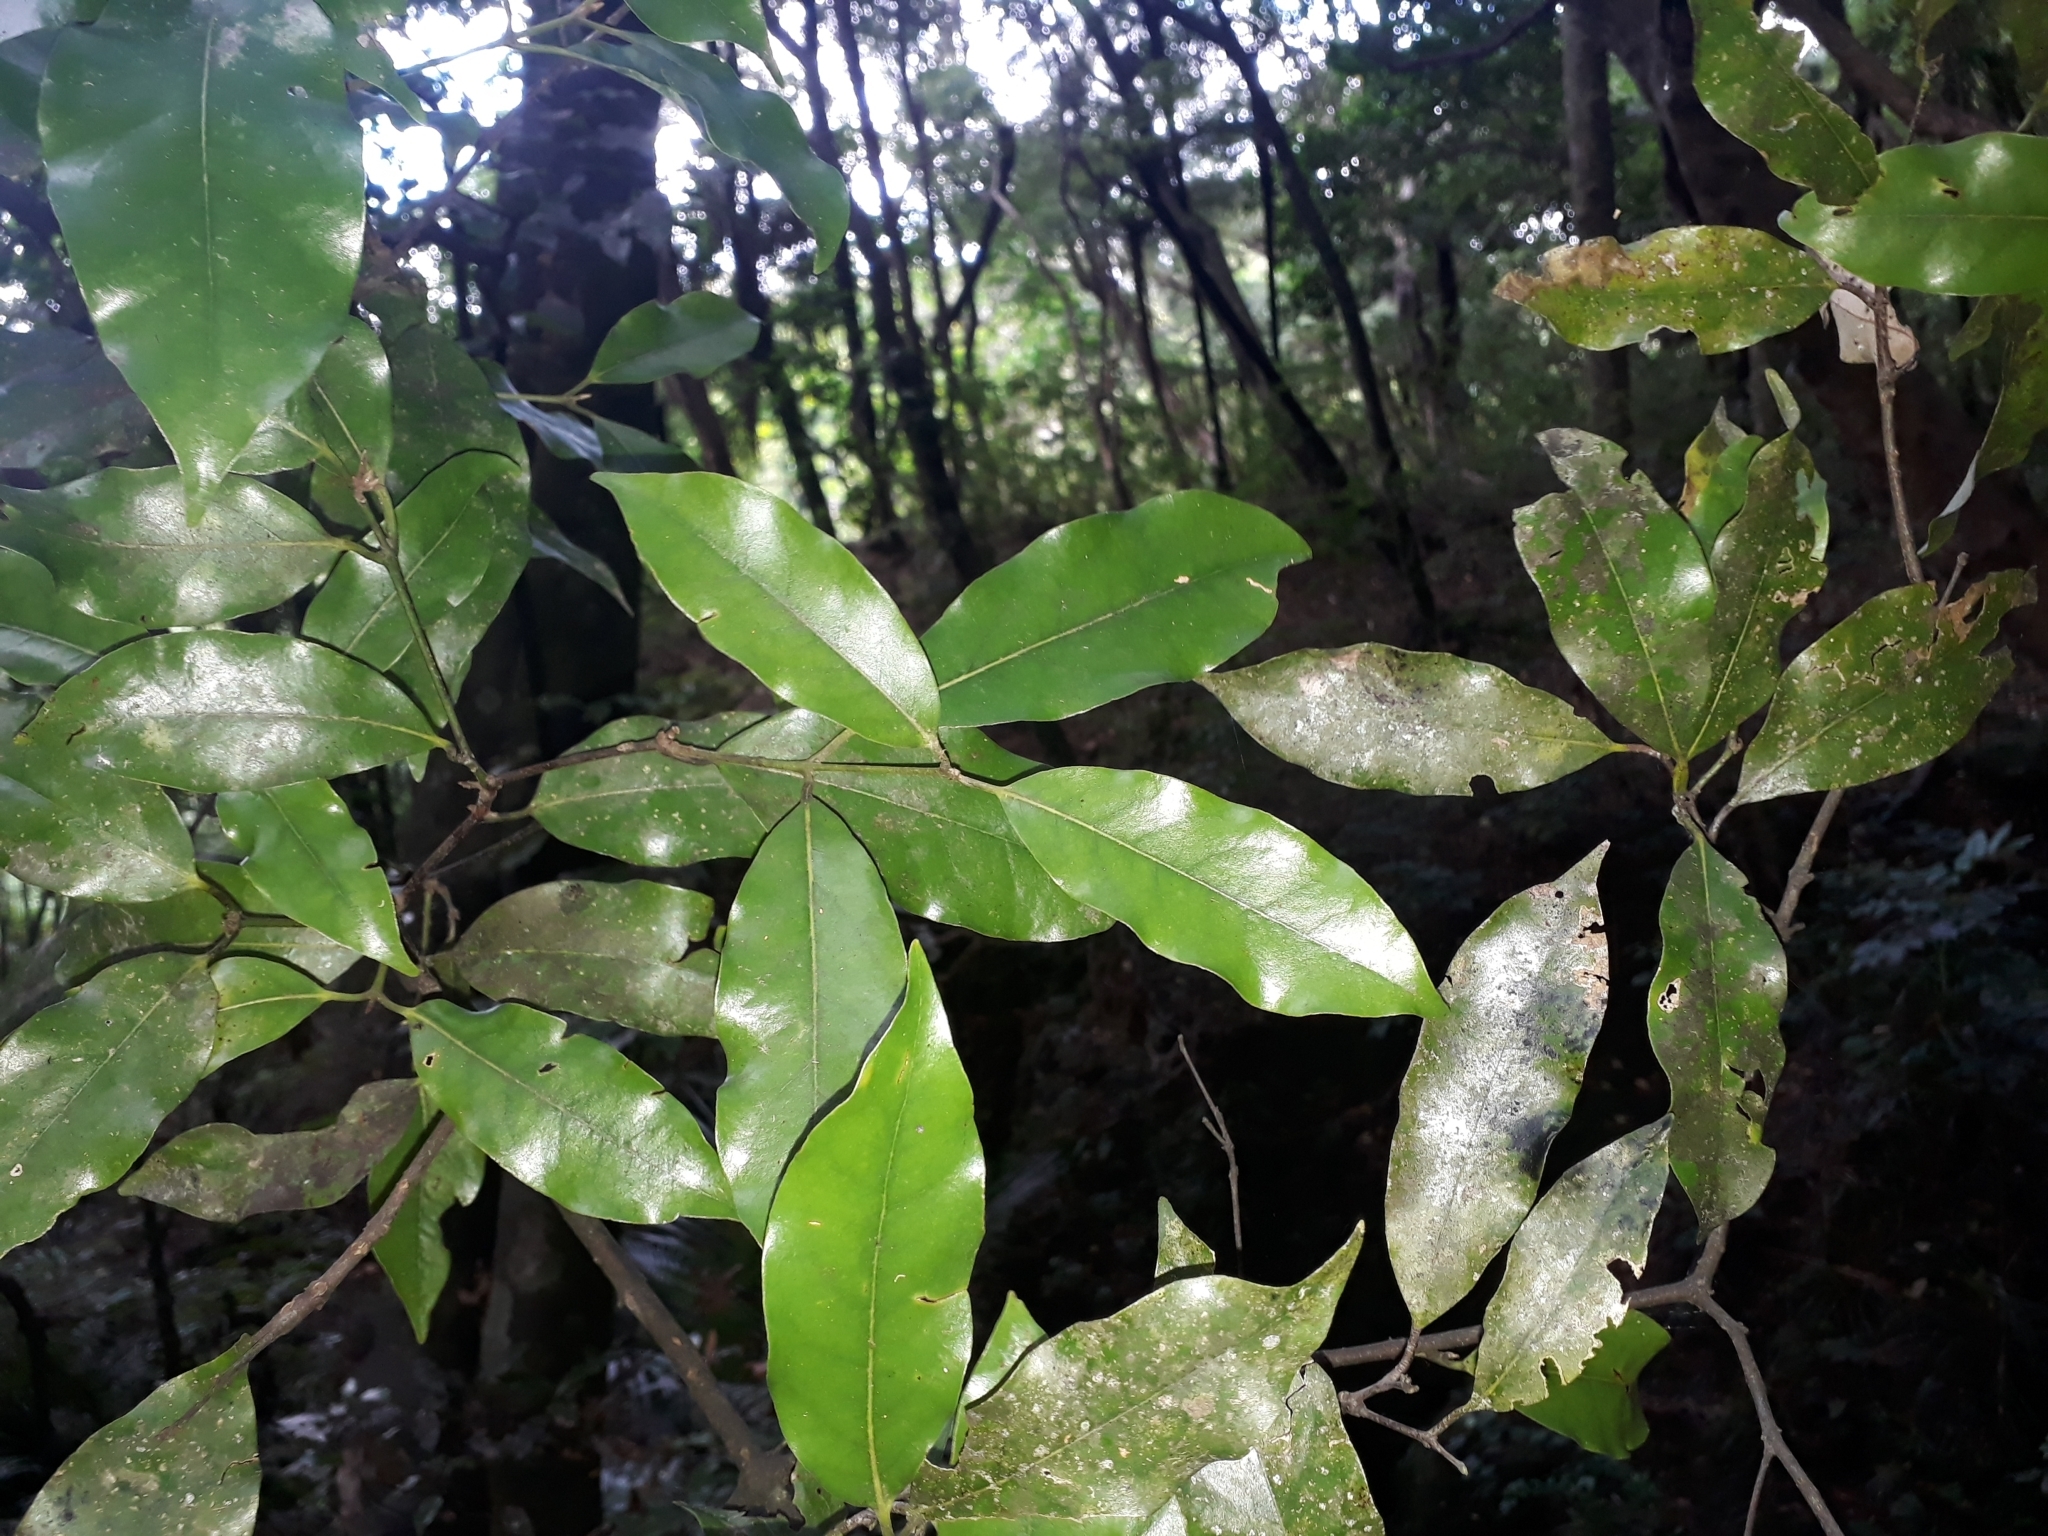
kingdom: Plantae
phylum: Tracheophyta
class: Magnoliopsida
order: Laurales
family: Lauraceae
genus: Beilschmiedia
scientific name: Beilschmiedia tawa
